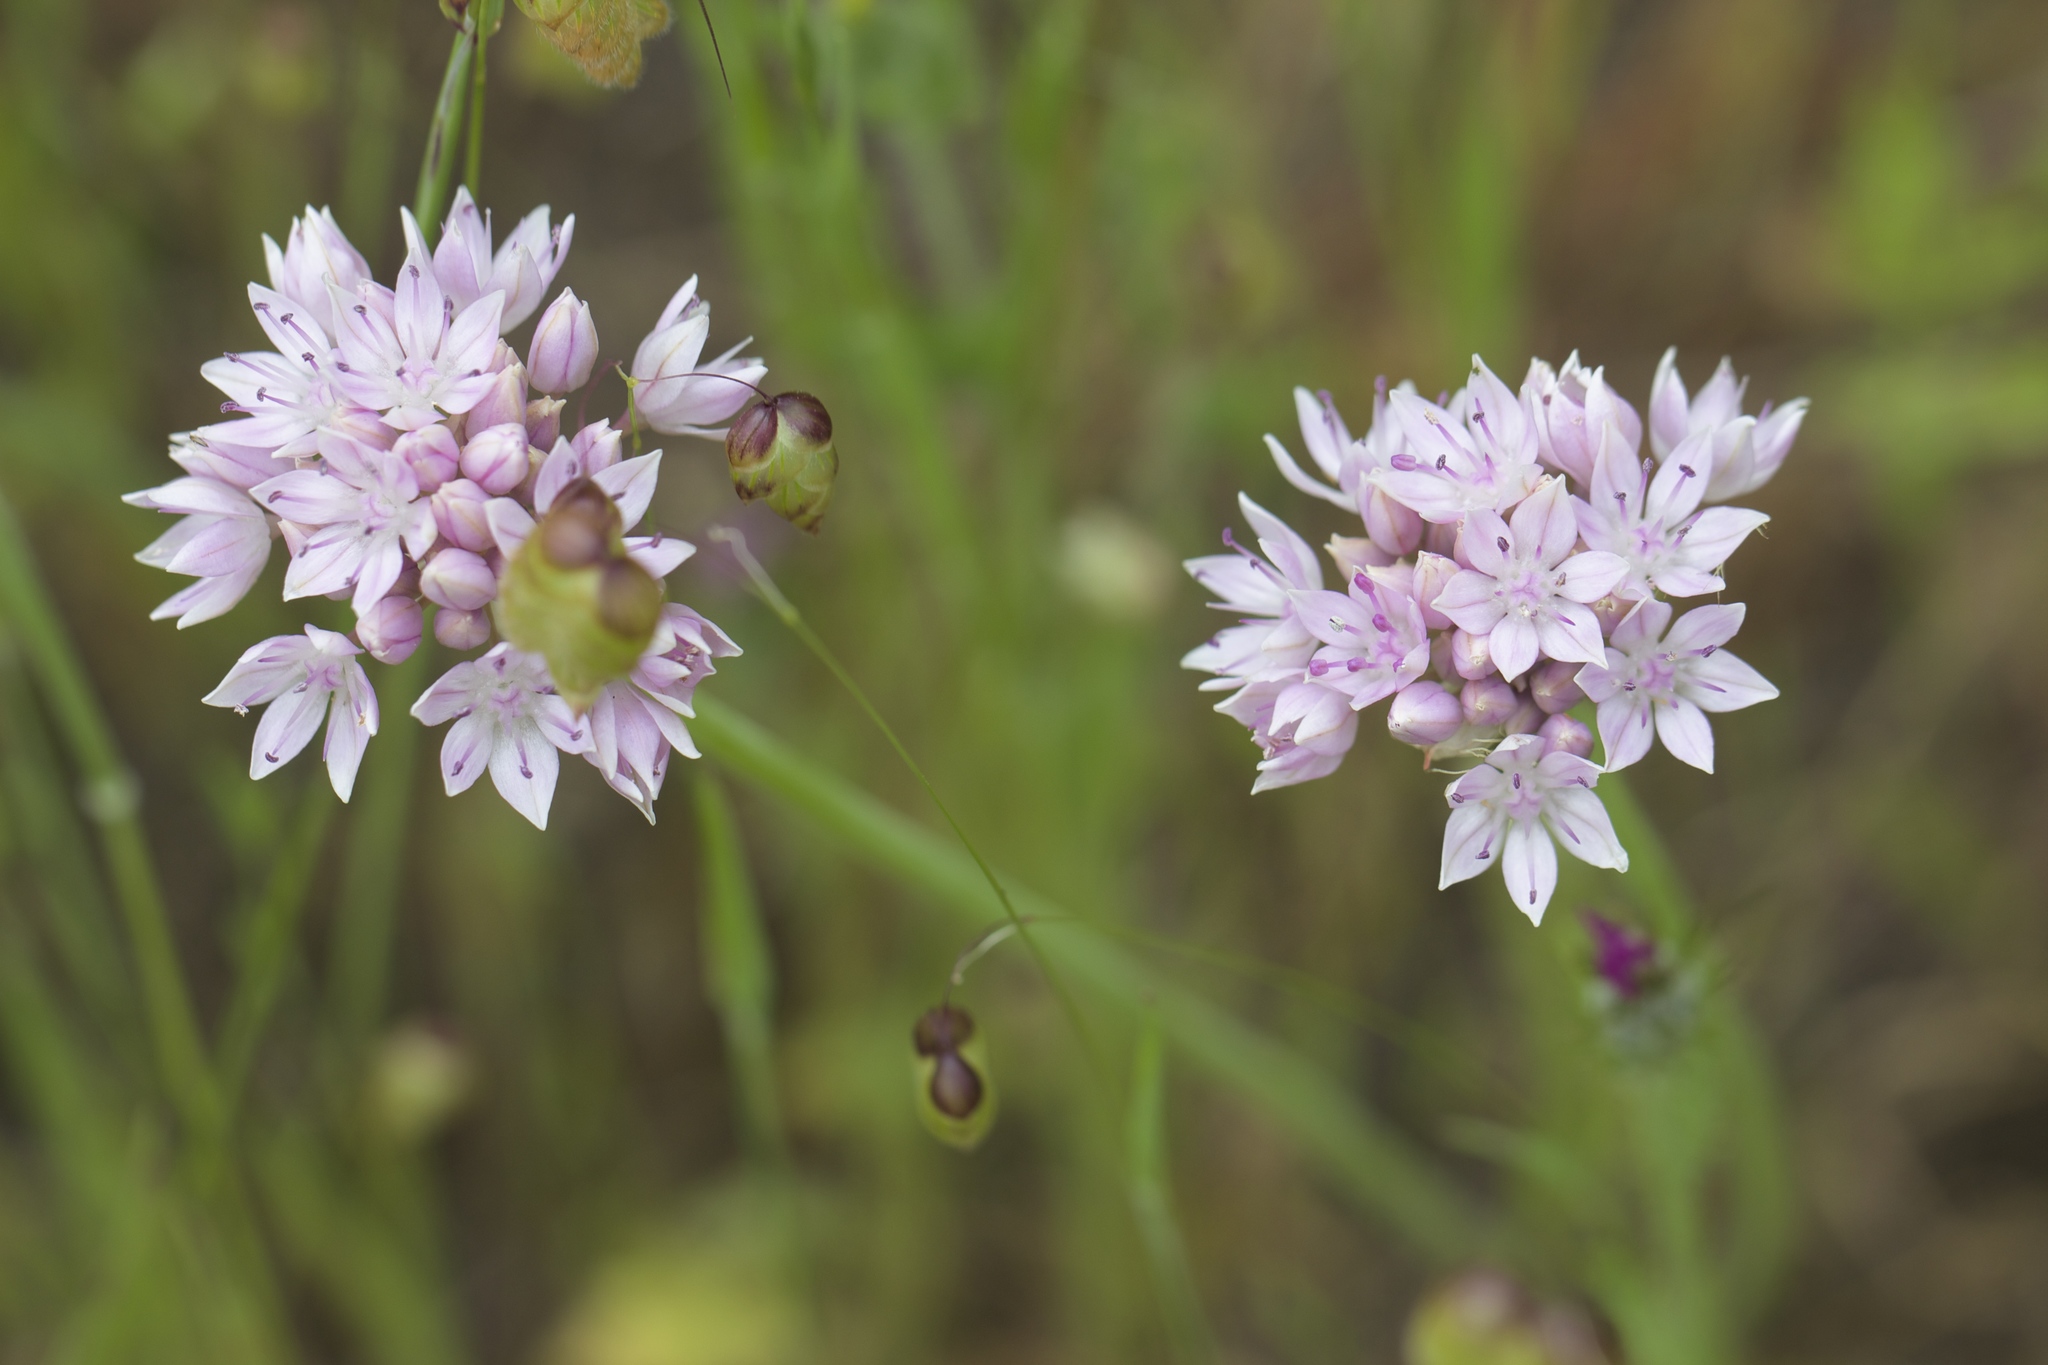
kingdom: Plantae
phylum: Tracheophyta
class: Liliopsida
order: Asparagales
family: Amaryllidaceae
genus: Allium
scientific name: Allium amplectens
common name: Narrow-leaved onion
